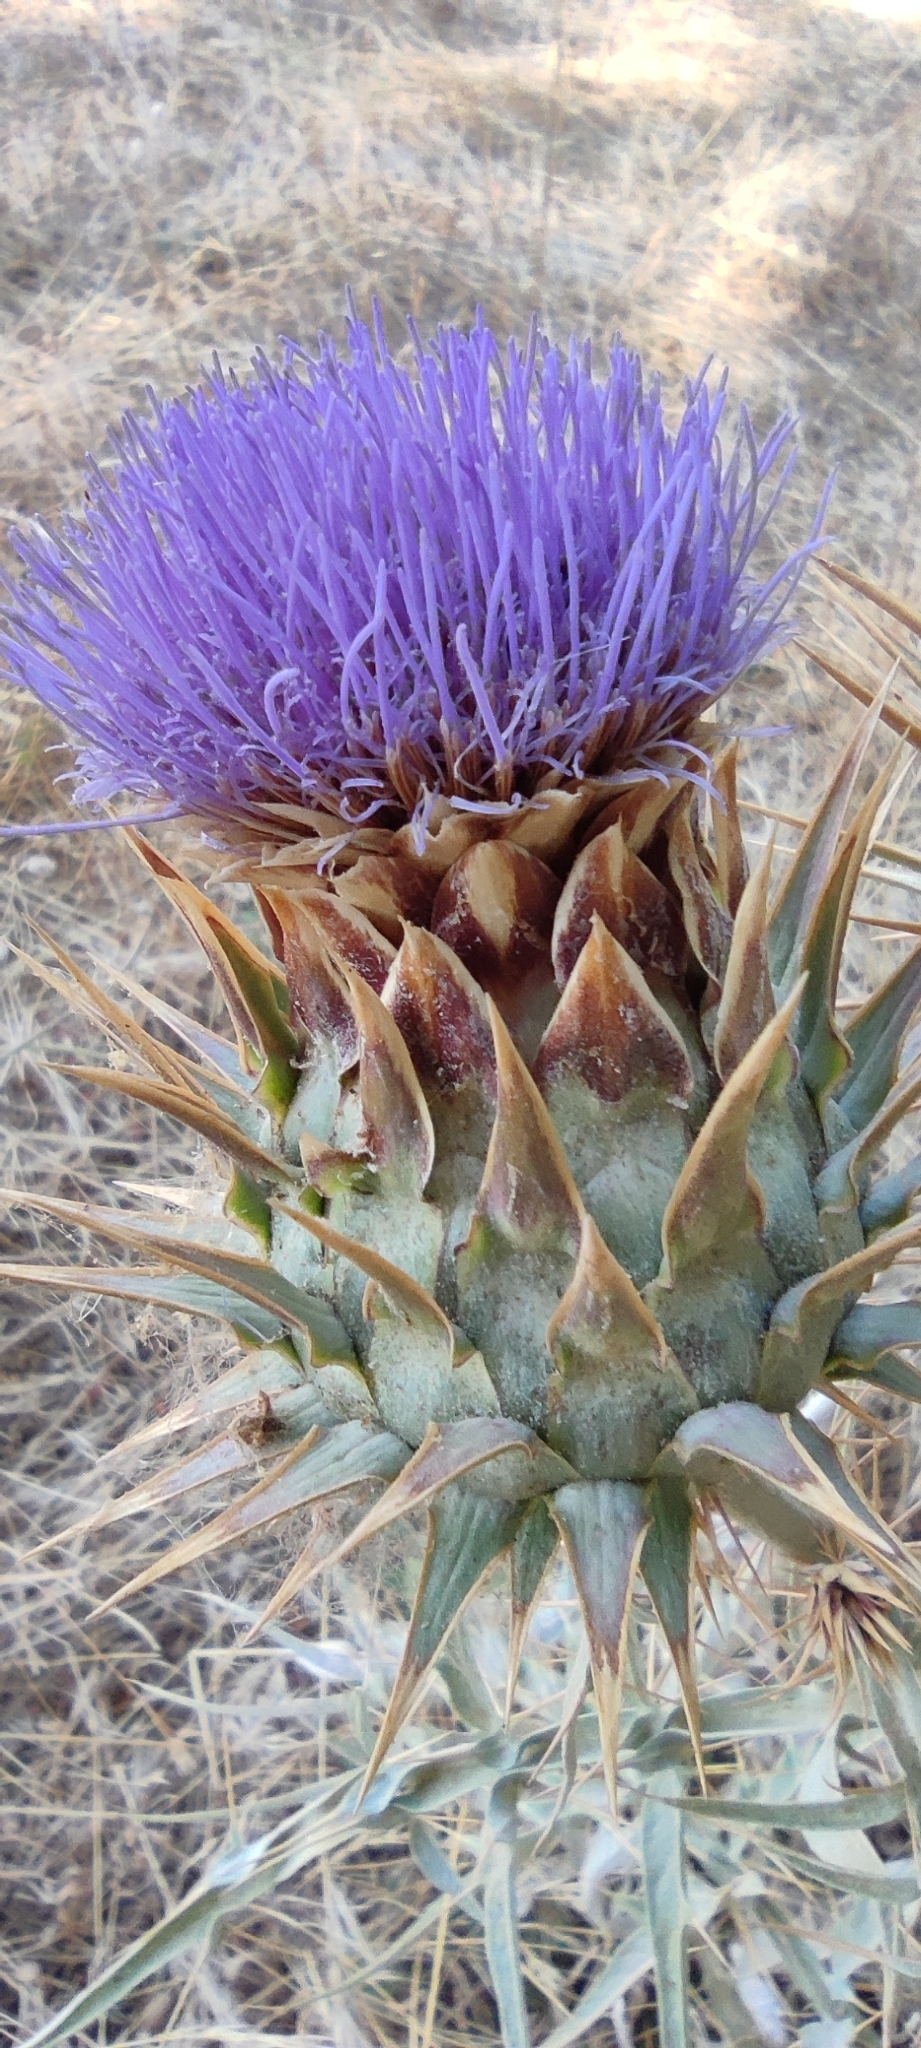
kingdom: Plantae
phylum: Tracheophyta
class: Magnoliopsida
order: Asterales
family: Asteraceae
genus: Cynara
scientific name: Cynara cardunculus
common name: Globe artichoke
